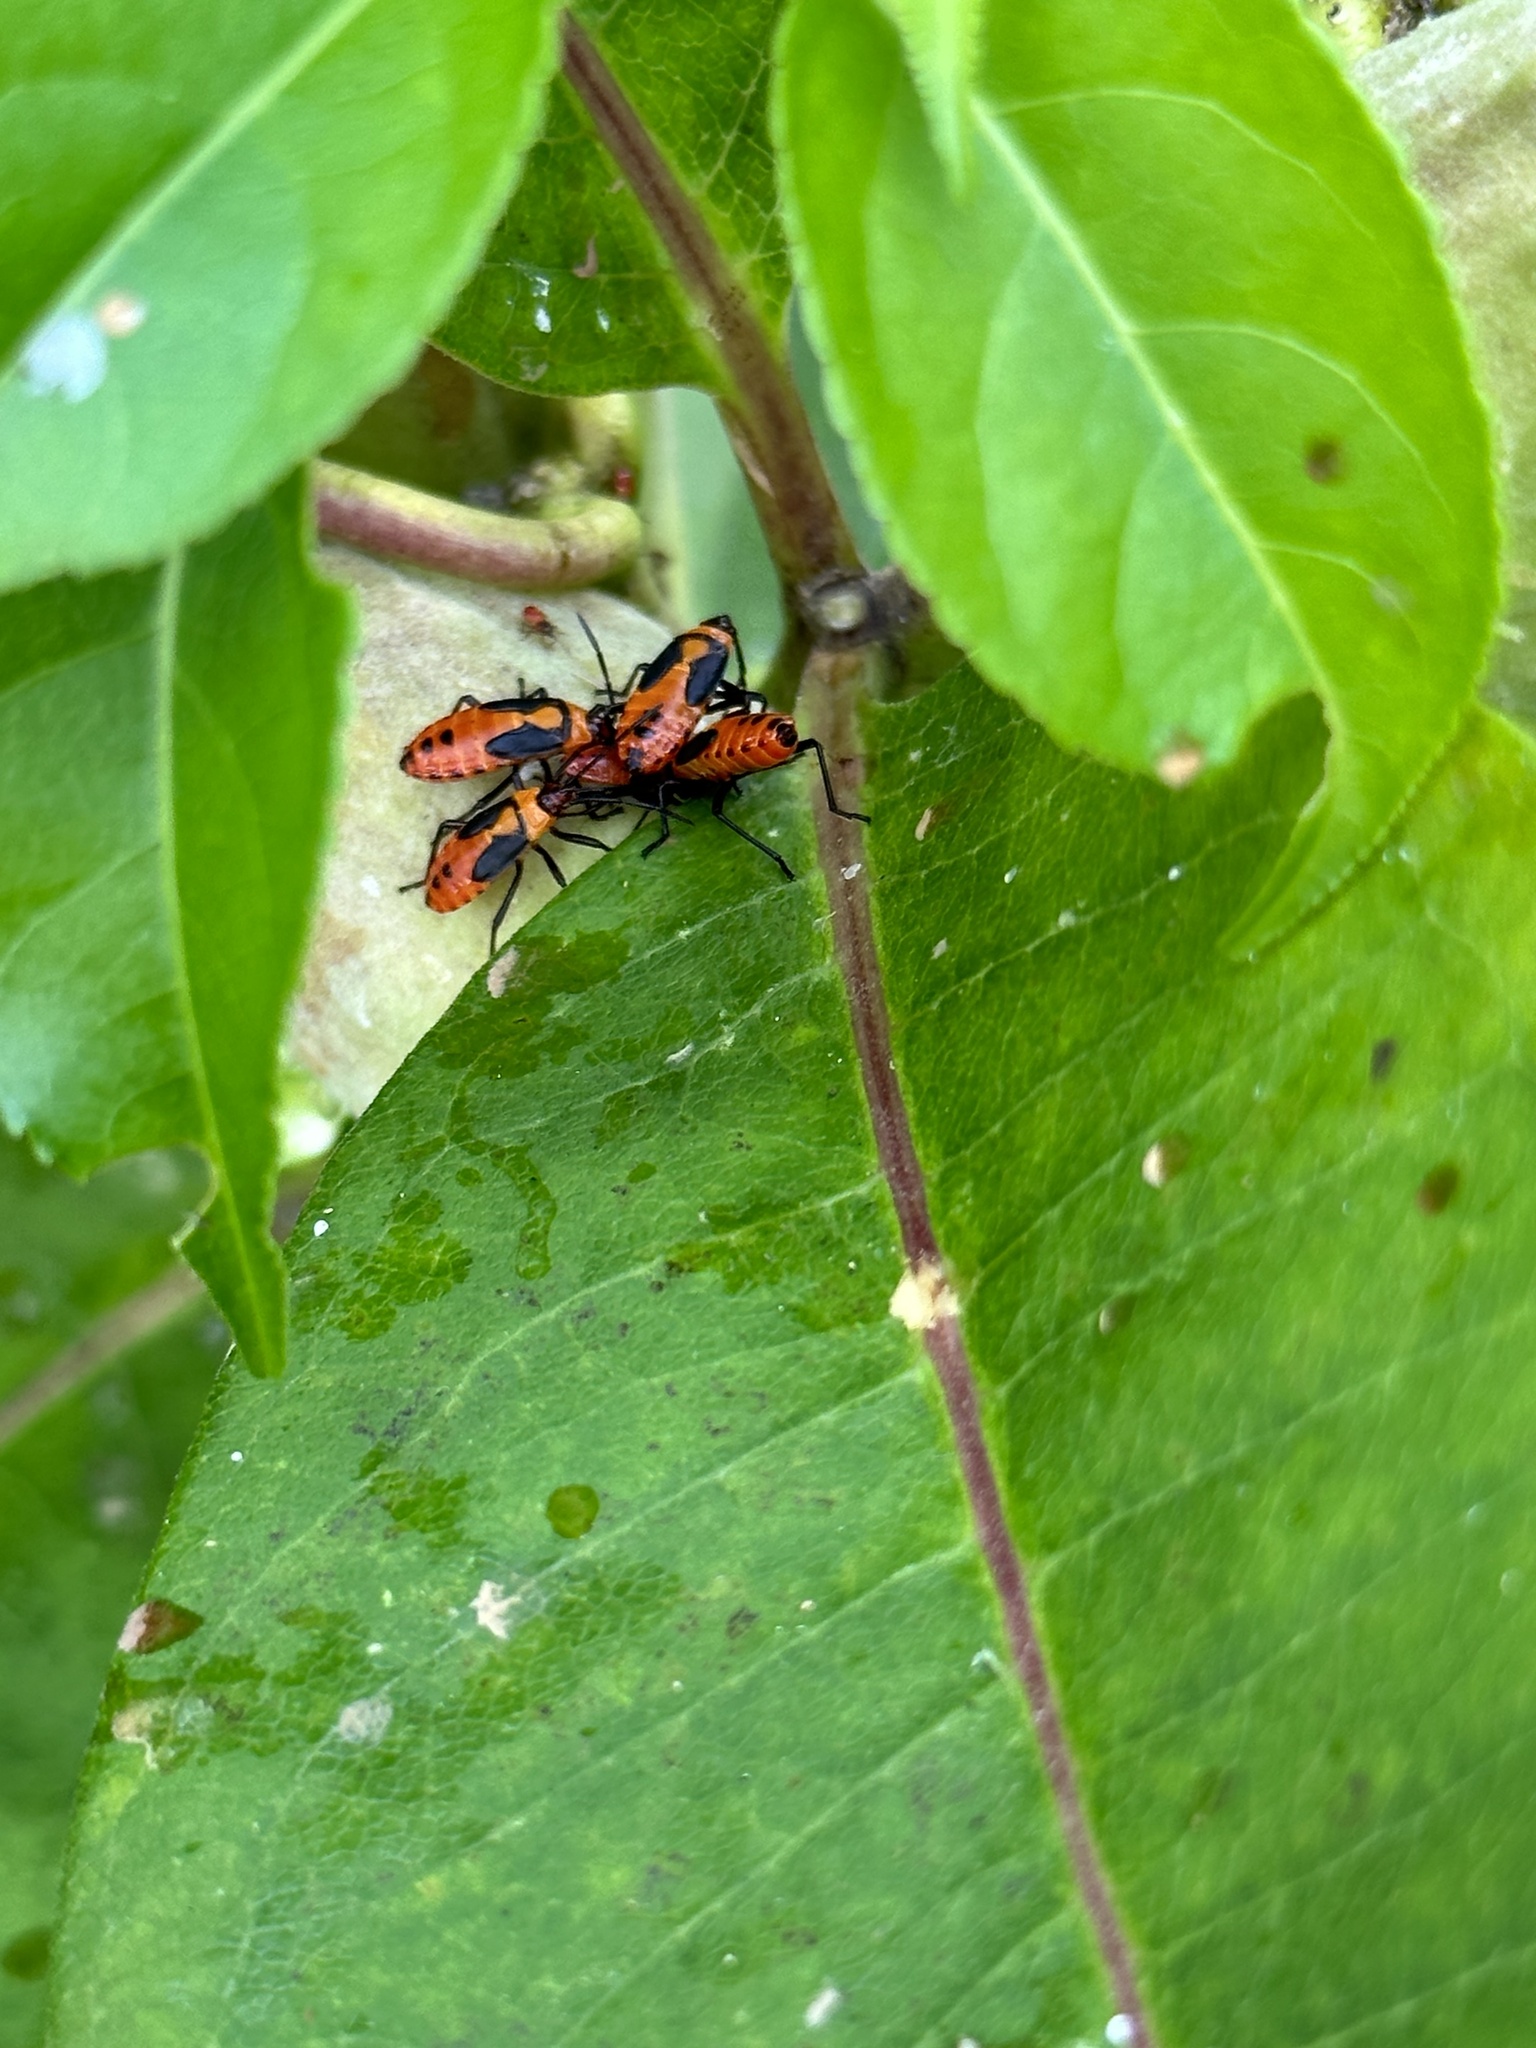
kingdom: Animalia
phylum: Arthropoda
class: Insecta
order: Hemiptera
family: Lygaeidae
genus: Oncopeltus
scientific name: Oncopeltus fasciatus
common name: Large milkweed bug
